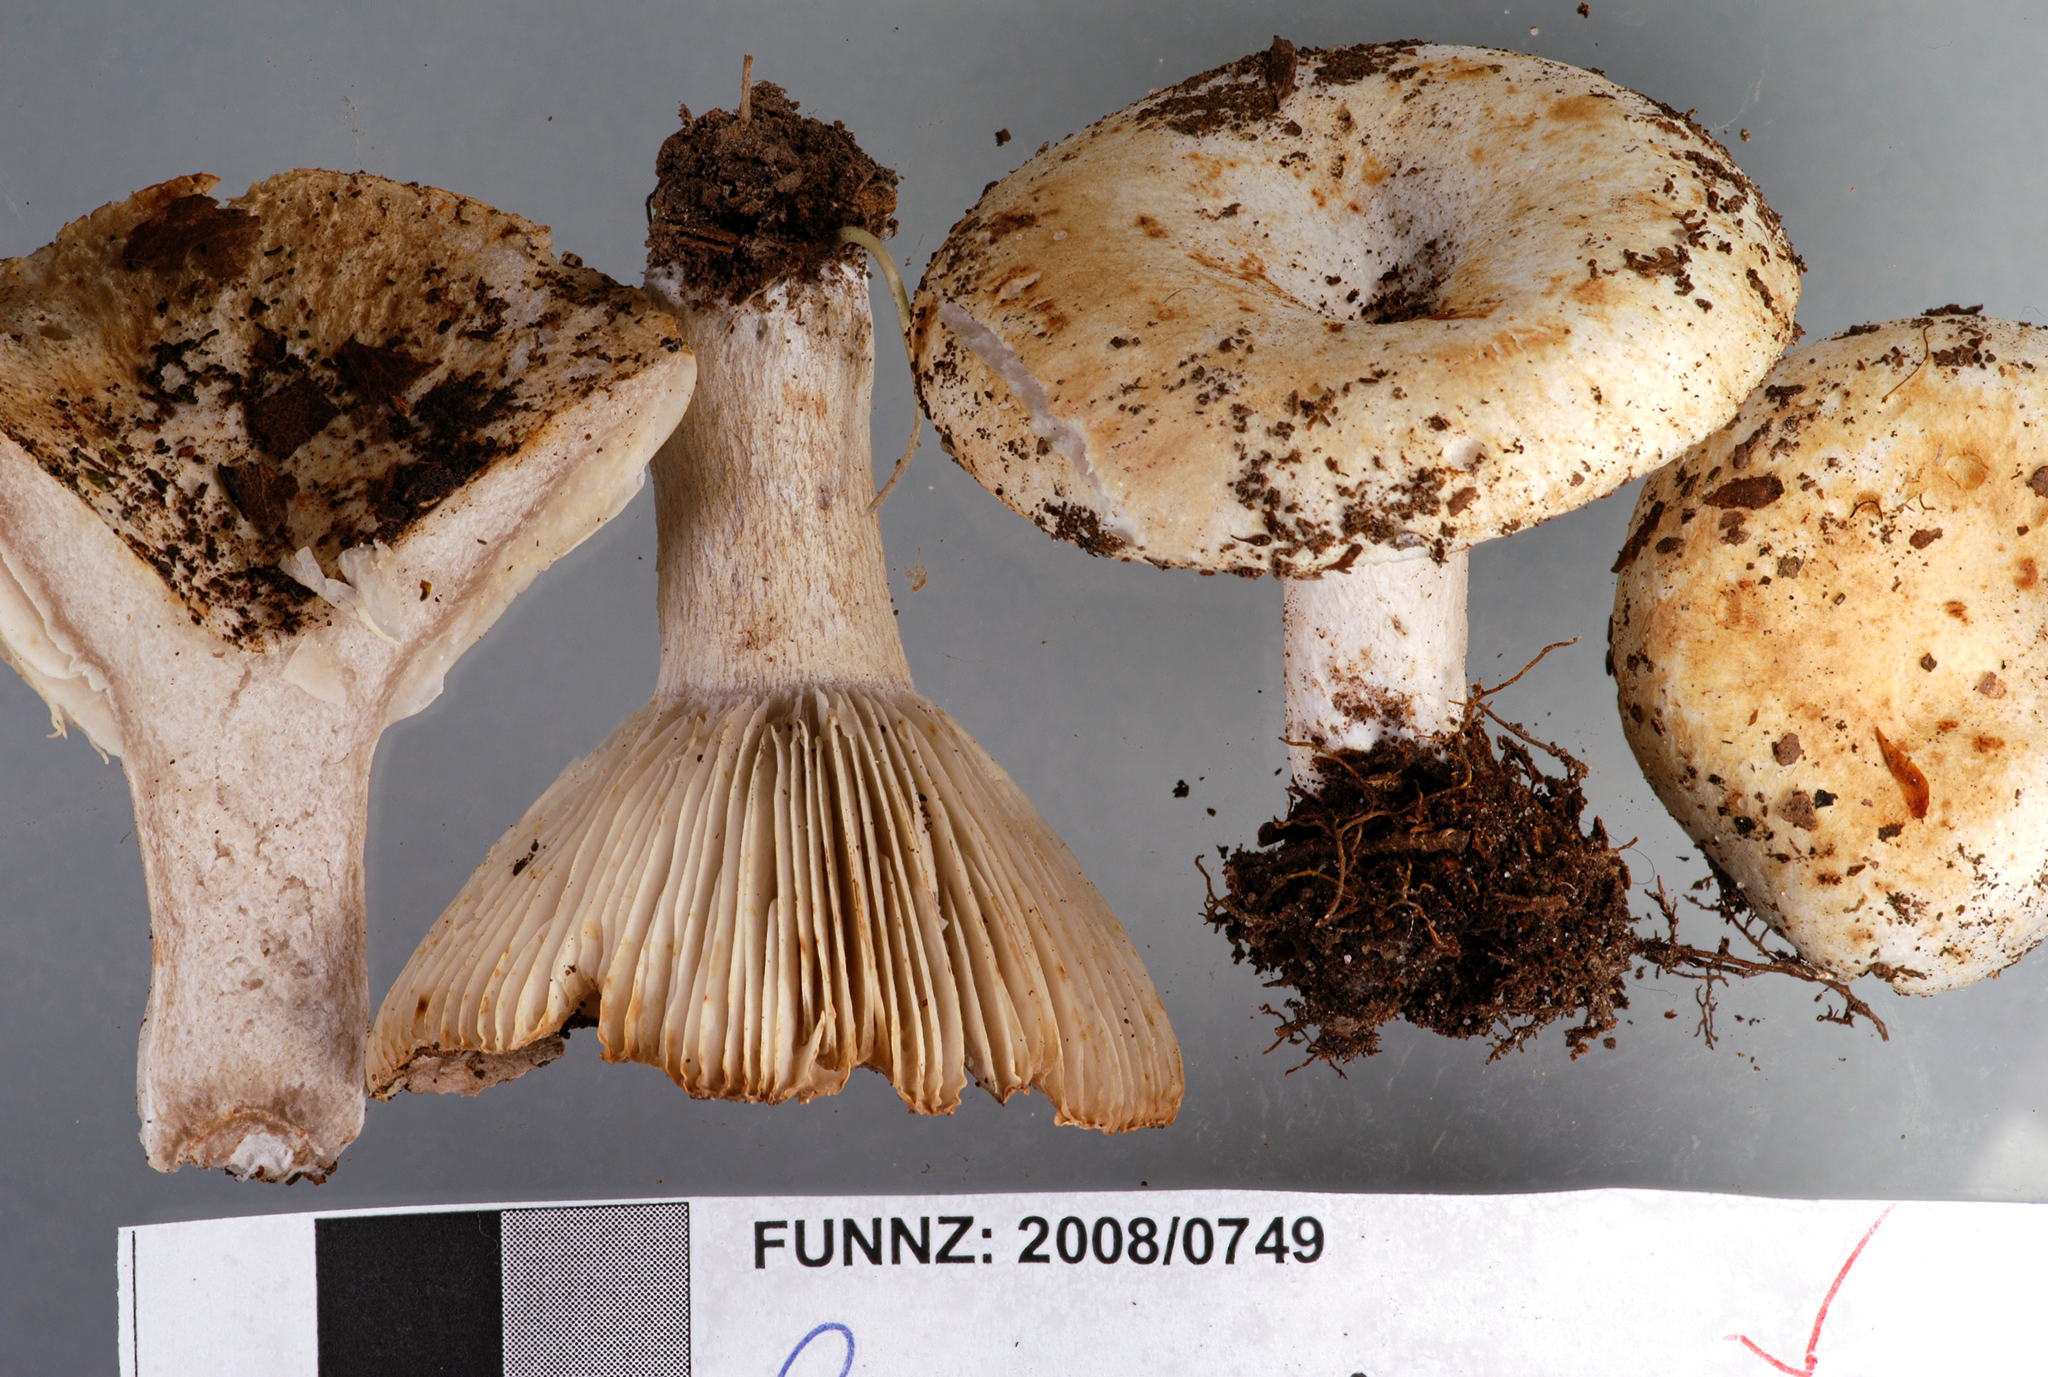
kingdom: Fungi
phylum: Basidiomycota
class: Agaricomycetes
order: Russulales
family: Russulaceae
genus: Russula
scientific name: Russula australis
